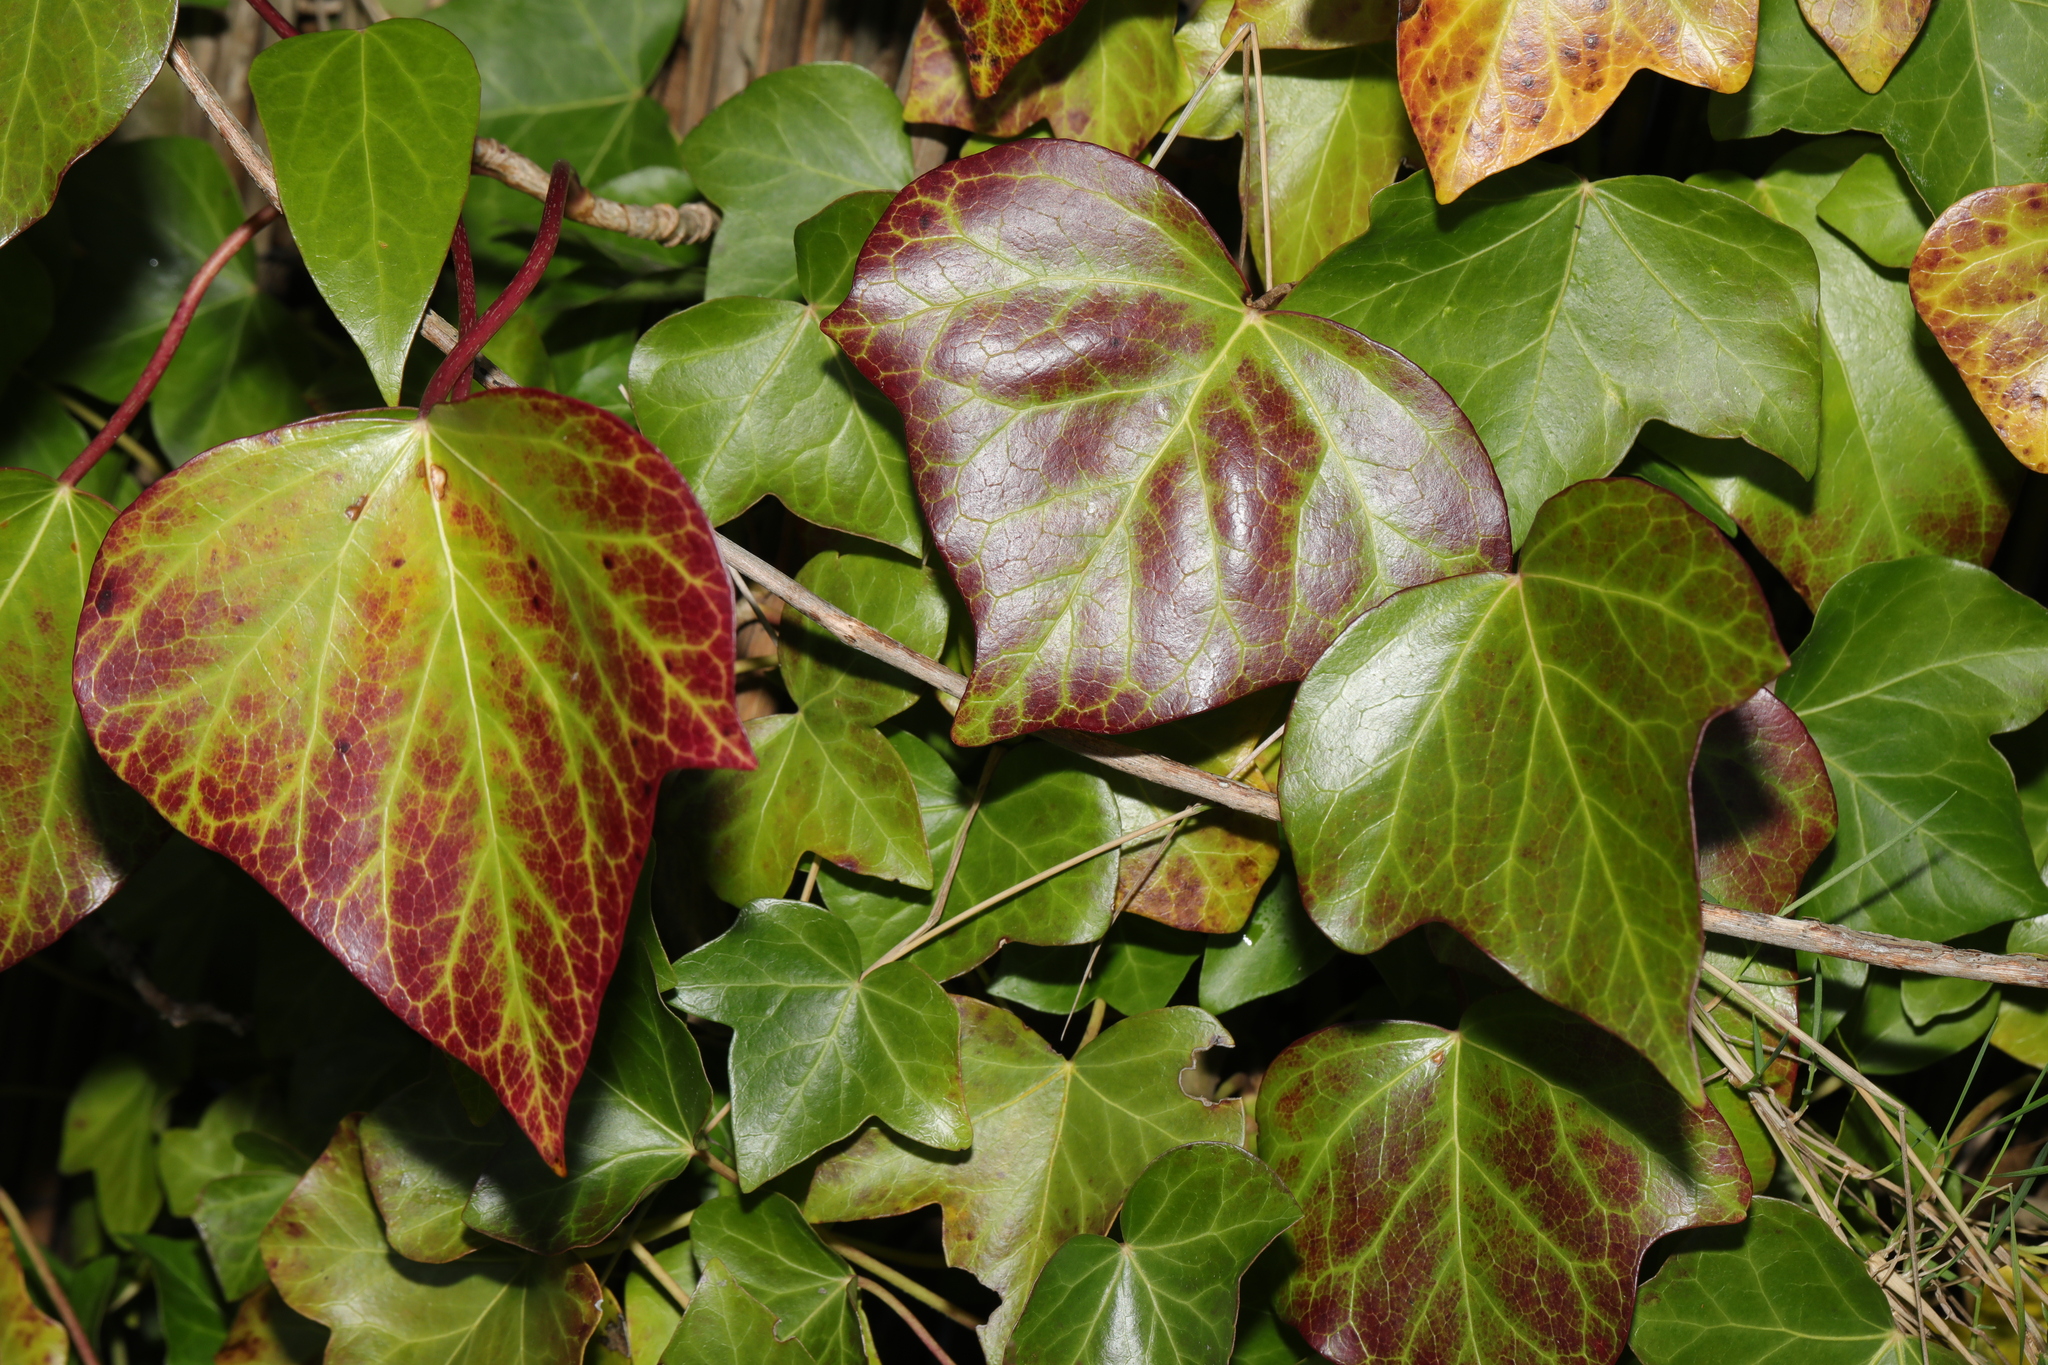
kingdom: Plantae
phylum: Tracheophyta
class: Magnoliopsida
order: Apiales
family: Araliaceae
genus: Hedera
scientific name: Hedera helix
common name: Ivy
